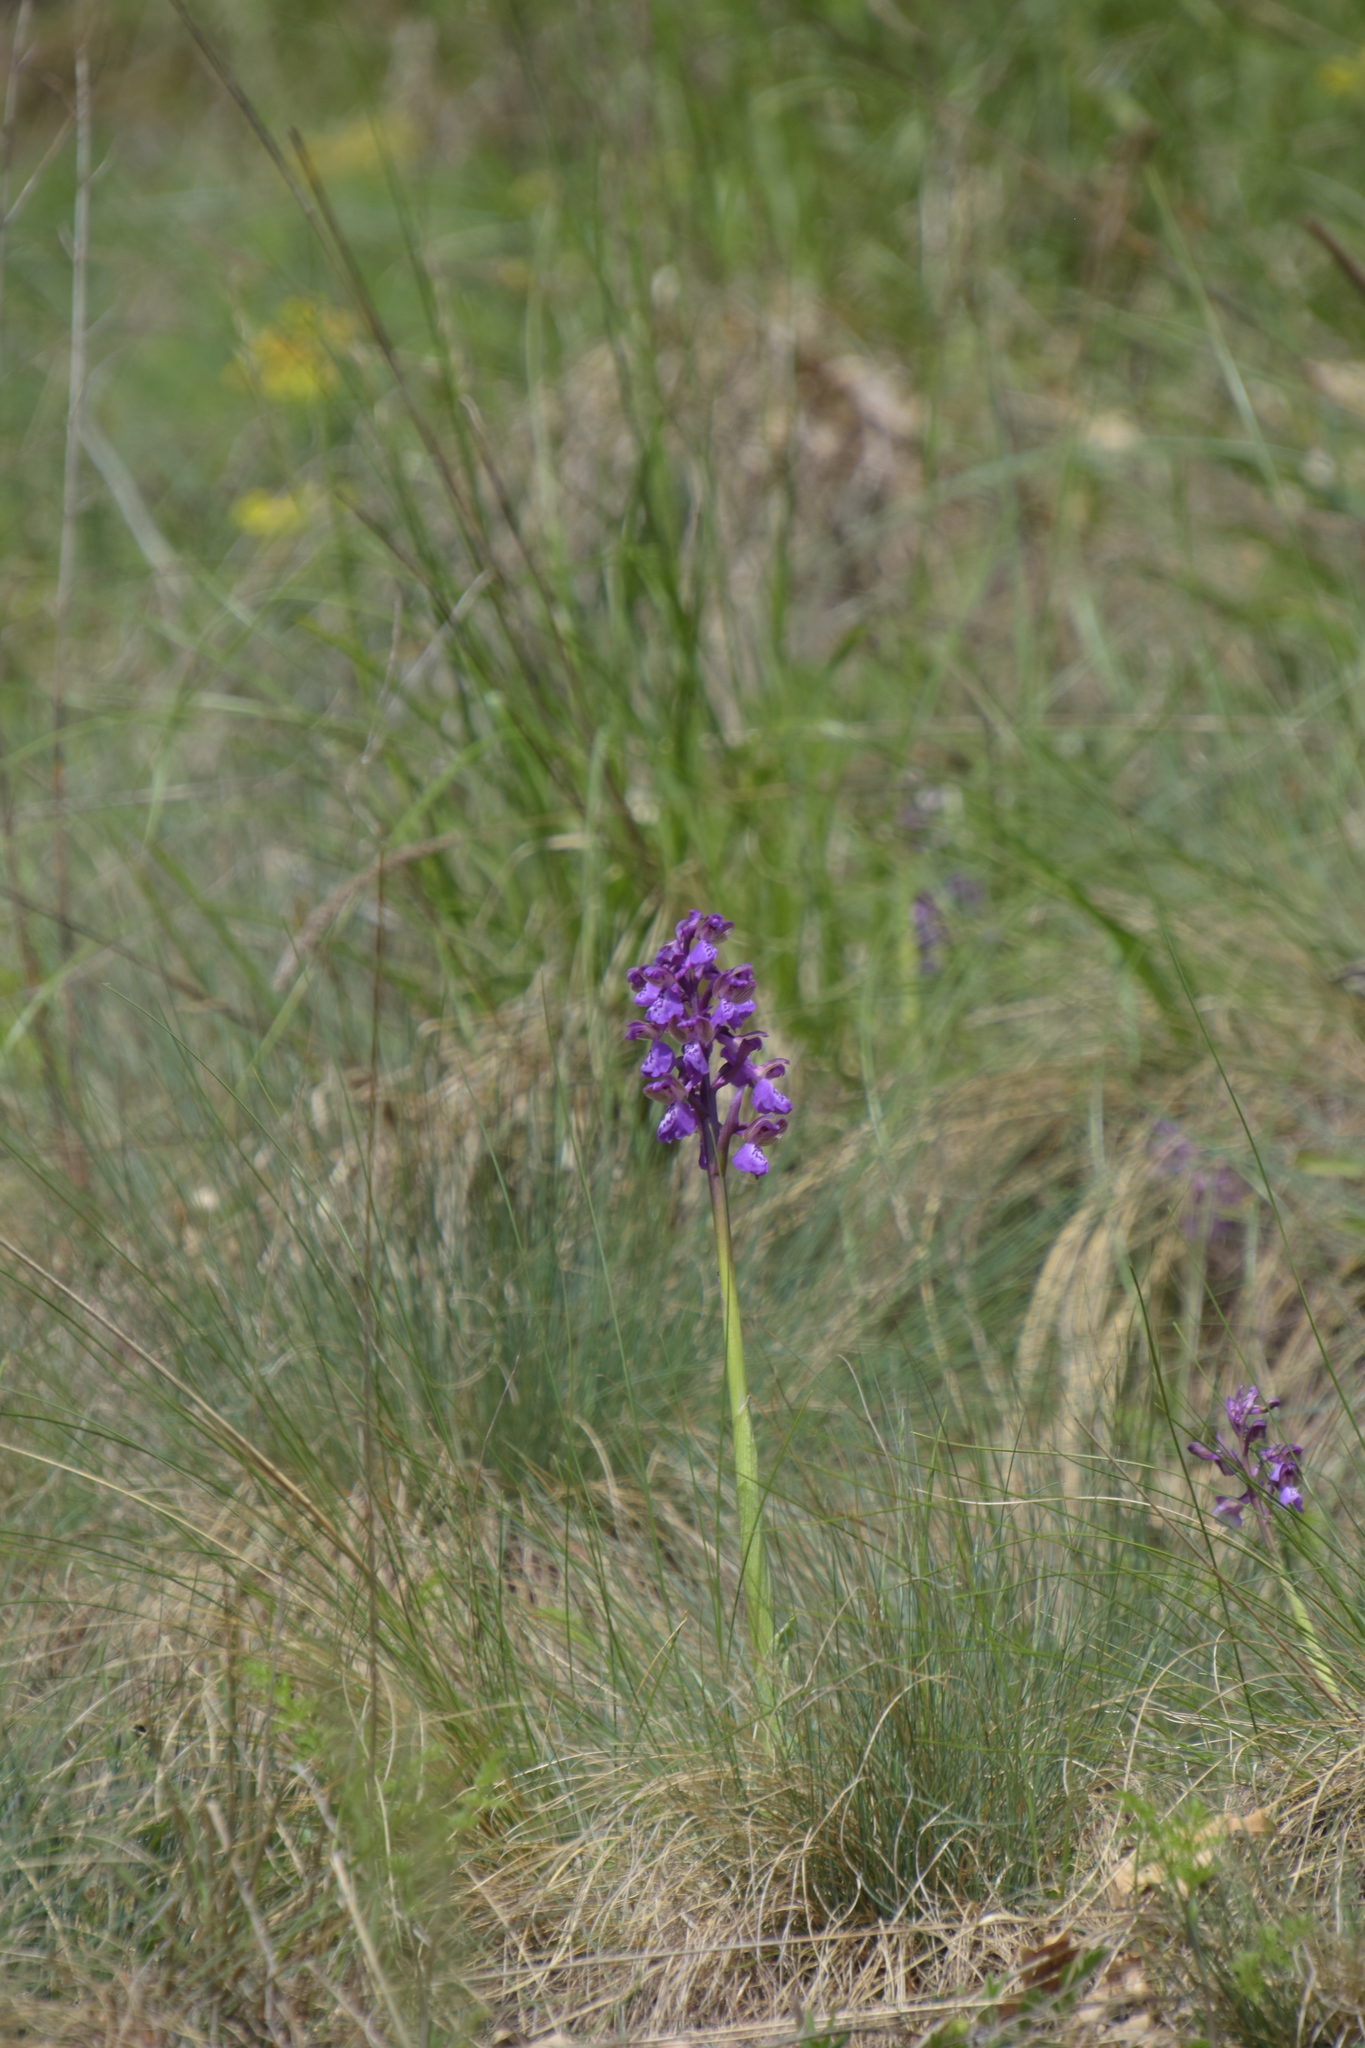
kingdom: Plantae
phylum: Tracheophyta
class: Liliopsida
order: Asparagales
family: Orchidaceae
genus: Anacamptis
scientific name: Anacamptis morio
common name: Green-winged orchid
